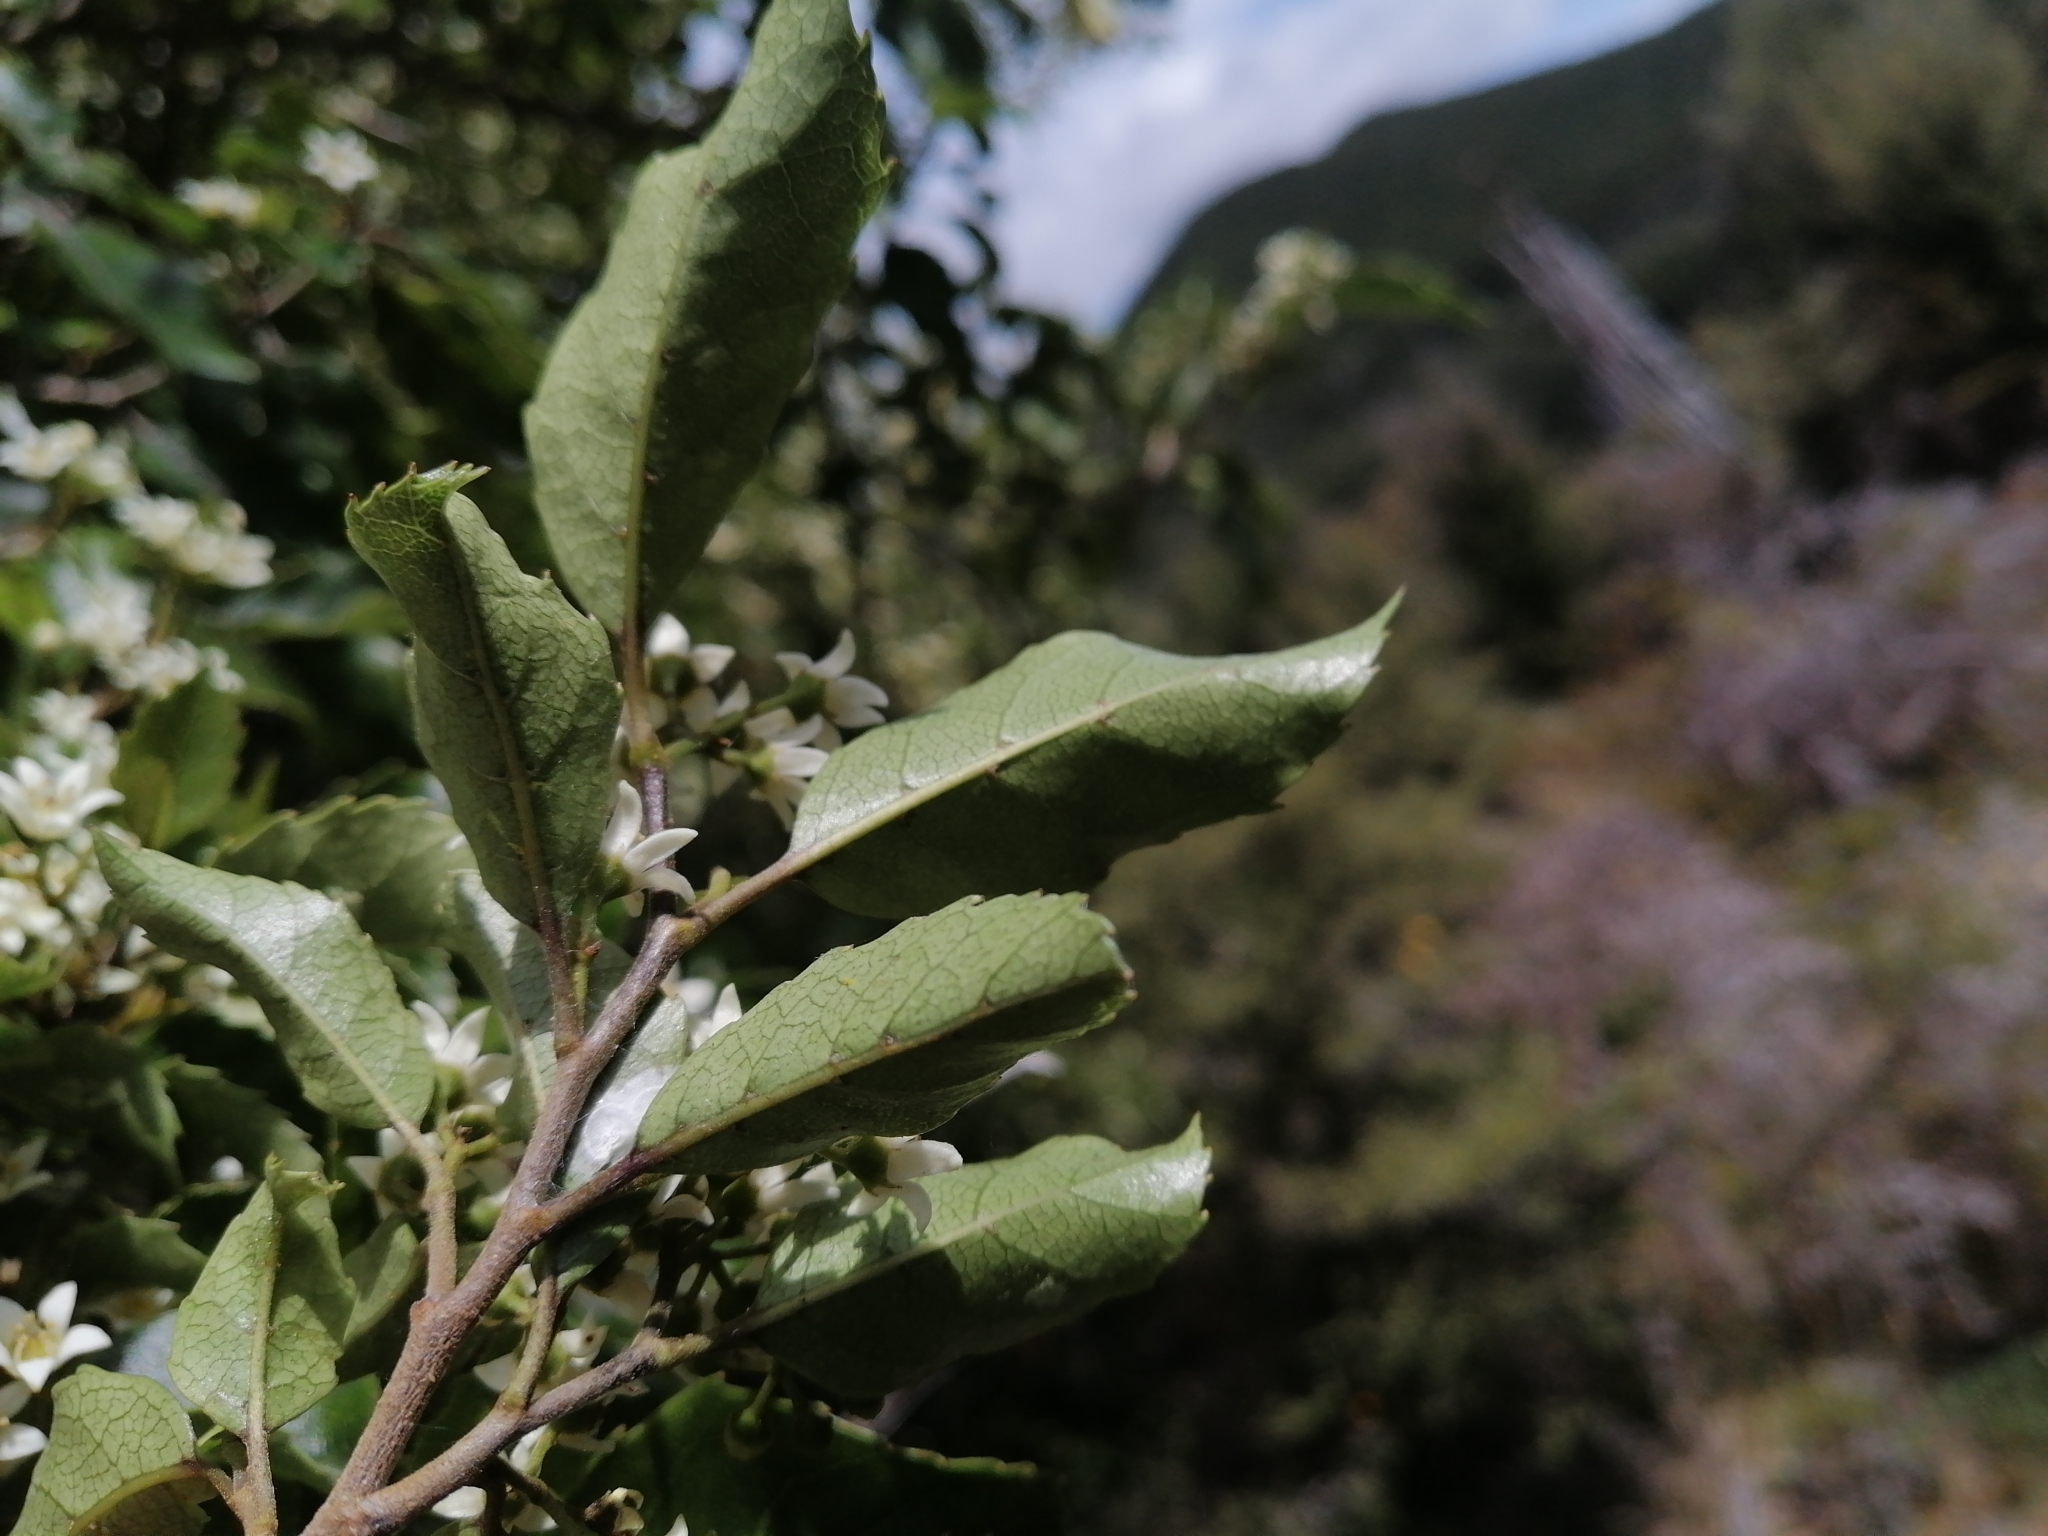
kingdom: Plantae
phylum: Tracheophyta
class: Magnoliopsida
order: Asterales
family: Rousseaceae
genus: Carpodetus
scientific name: Carpodetus serratus
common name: White mapau
